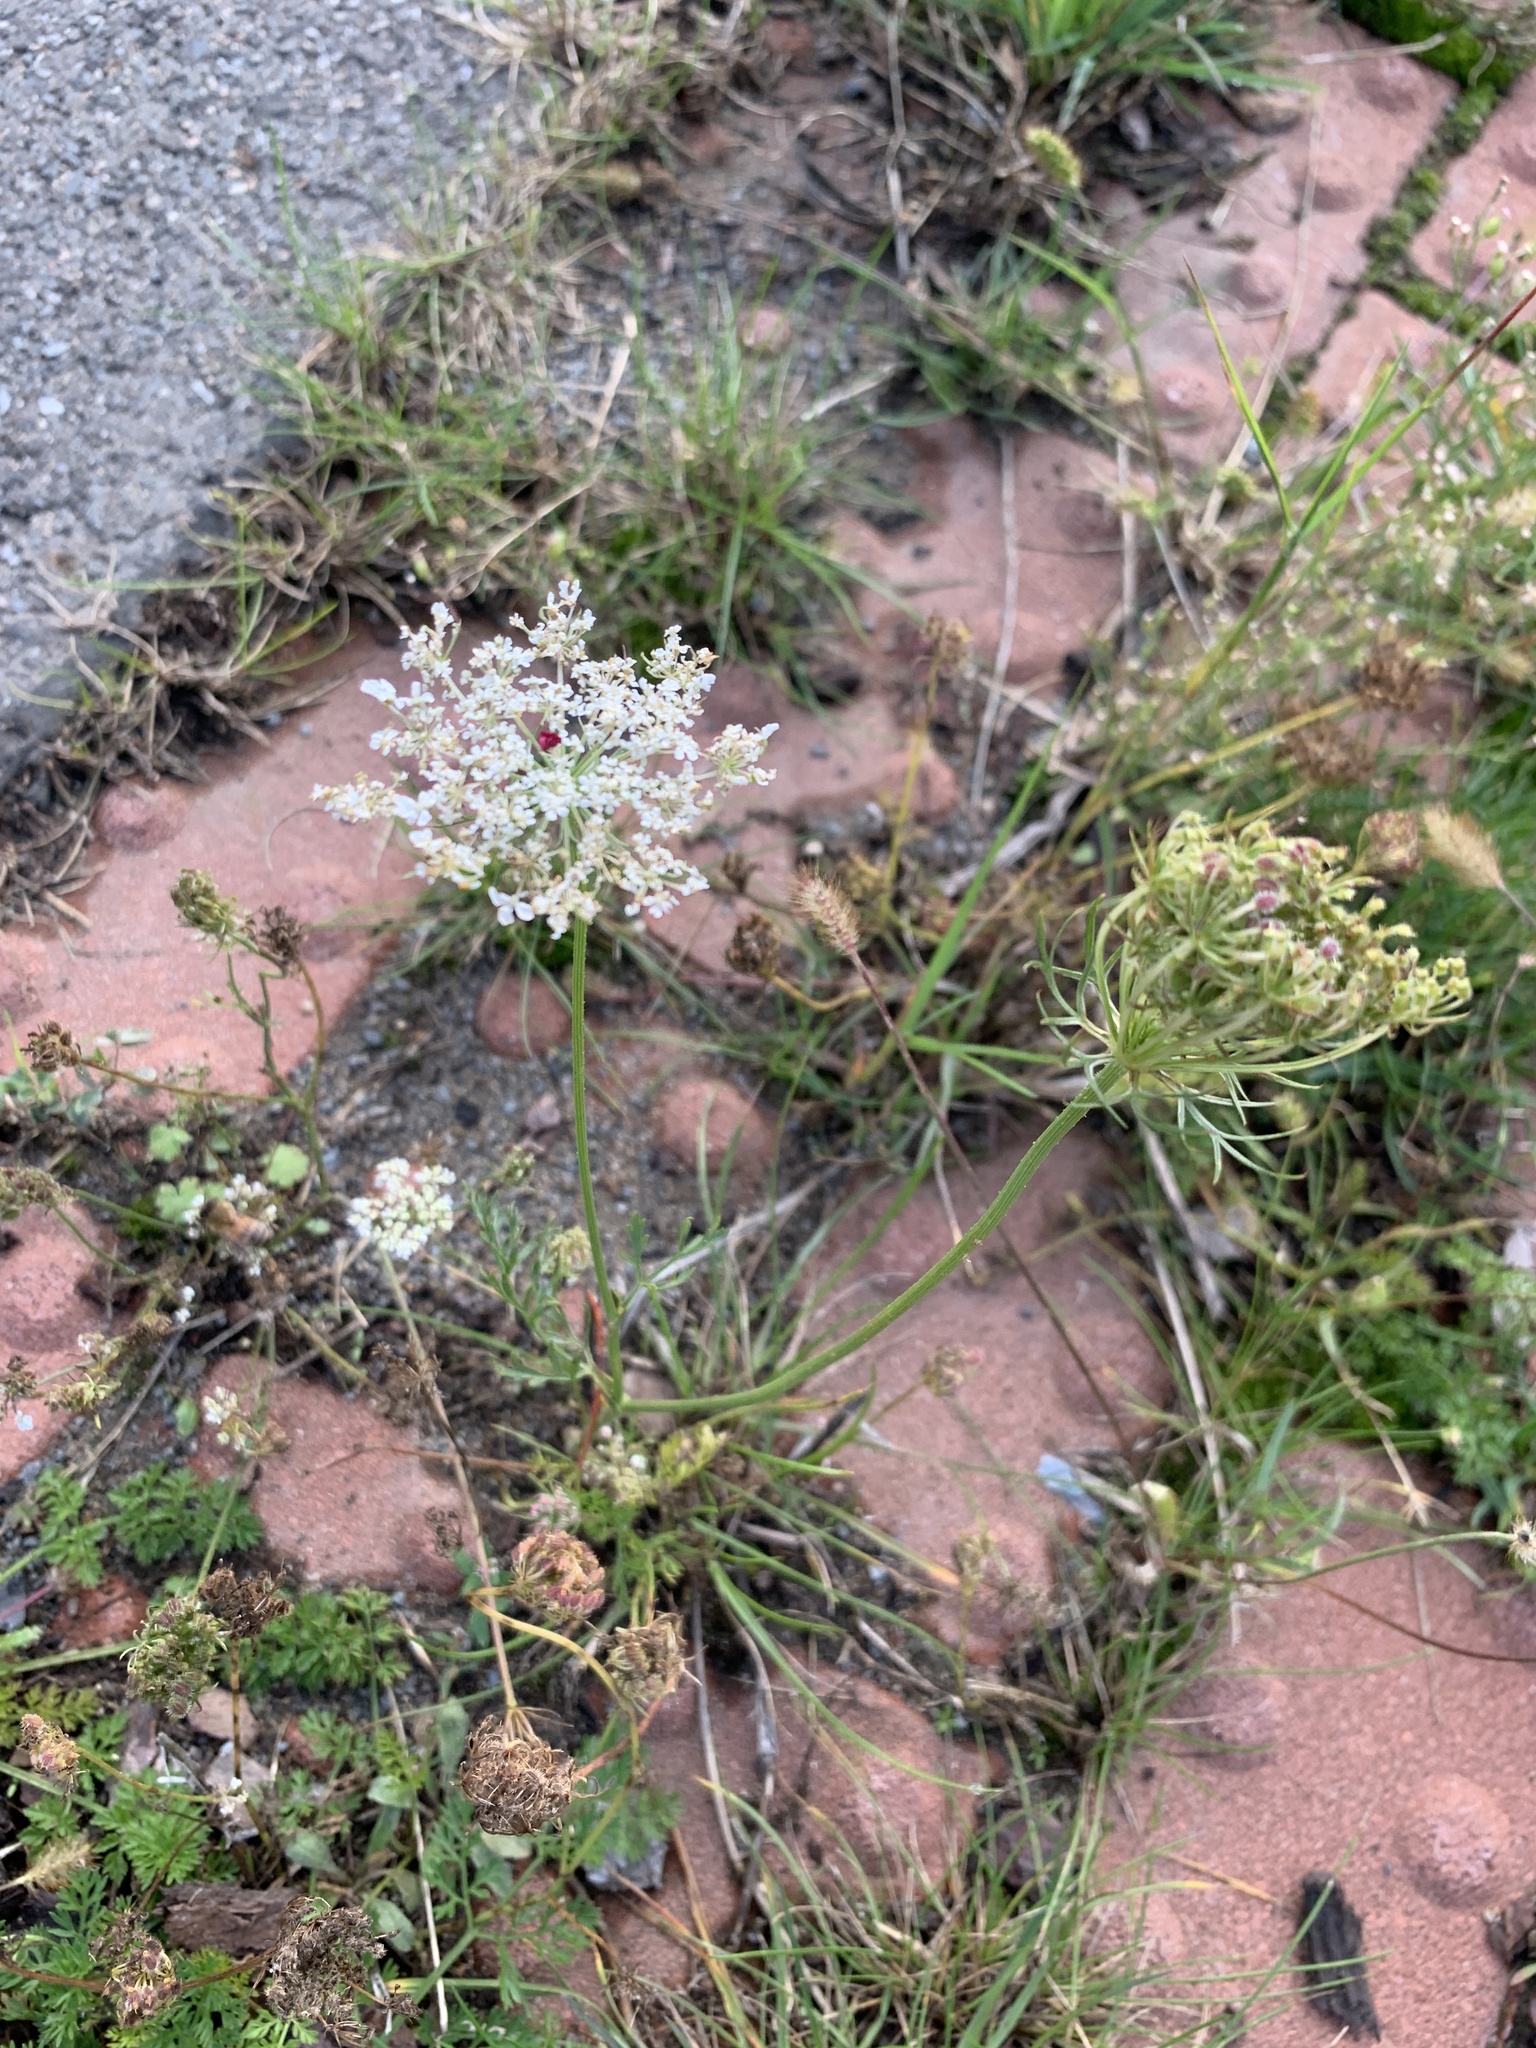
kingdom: Plantae
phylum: Tracheophyta
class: Magnoliopsida
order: Apiales
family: Apiaceae
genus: Daucus
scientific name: Daucus carota
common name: Wild carrot
